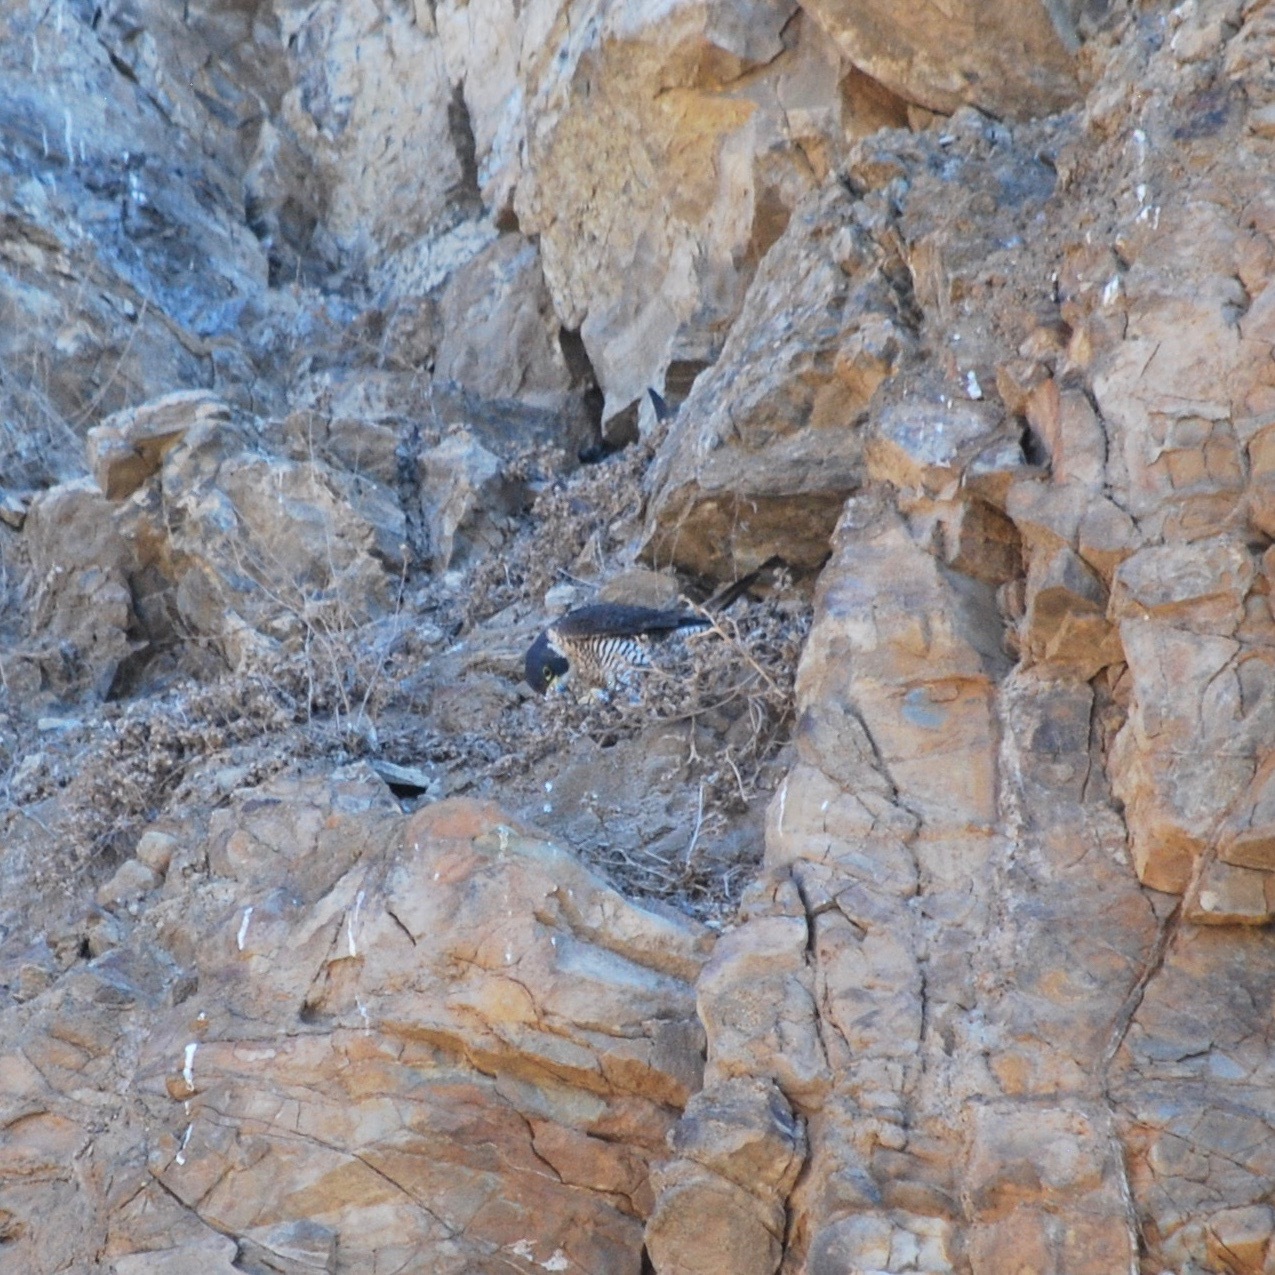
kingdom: Animalia
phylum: Chordata
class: Aves
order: Falconiformes
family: Falconidae
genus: Falco
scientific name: Falco peregrinus
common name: Peregrine falcon
